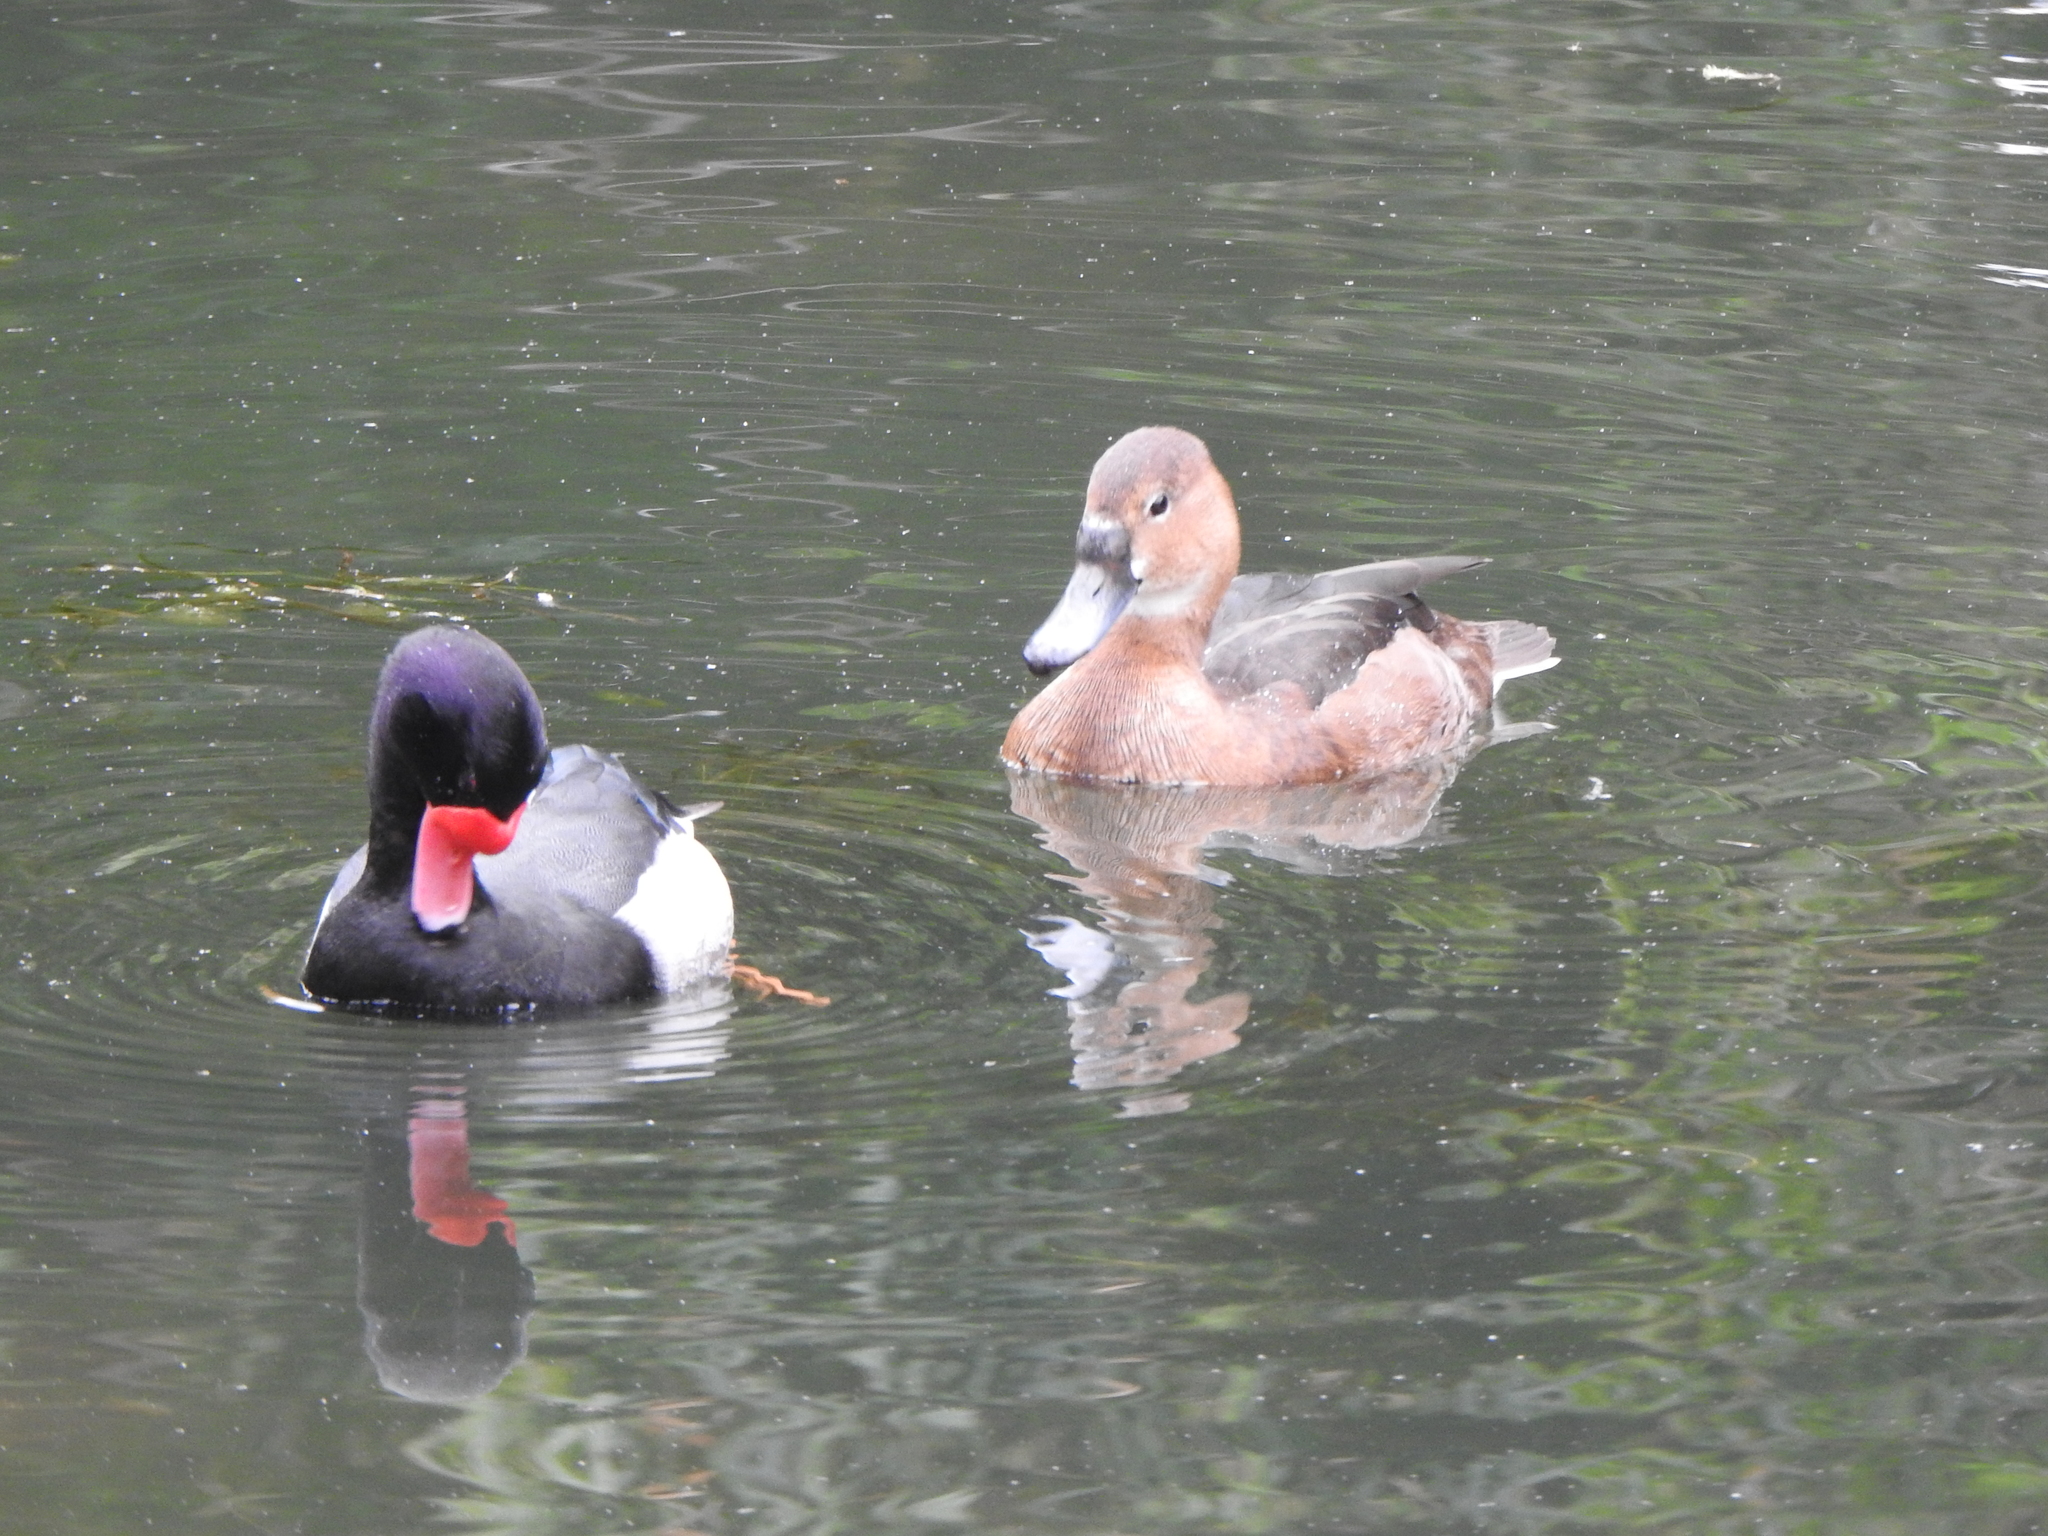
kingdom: Animalia
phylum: Chordata
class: Aves
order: Anseriformes
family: Anatidae
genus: Netta
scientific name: Netta peposaca
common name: Rosy-billed pochard
